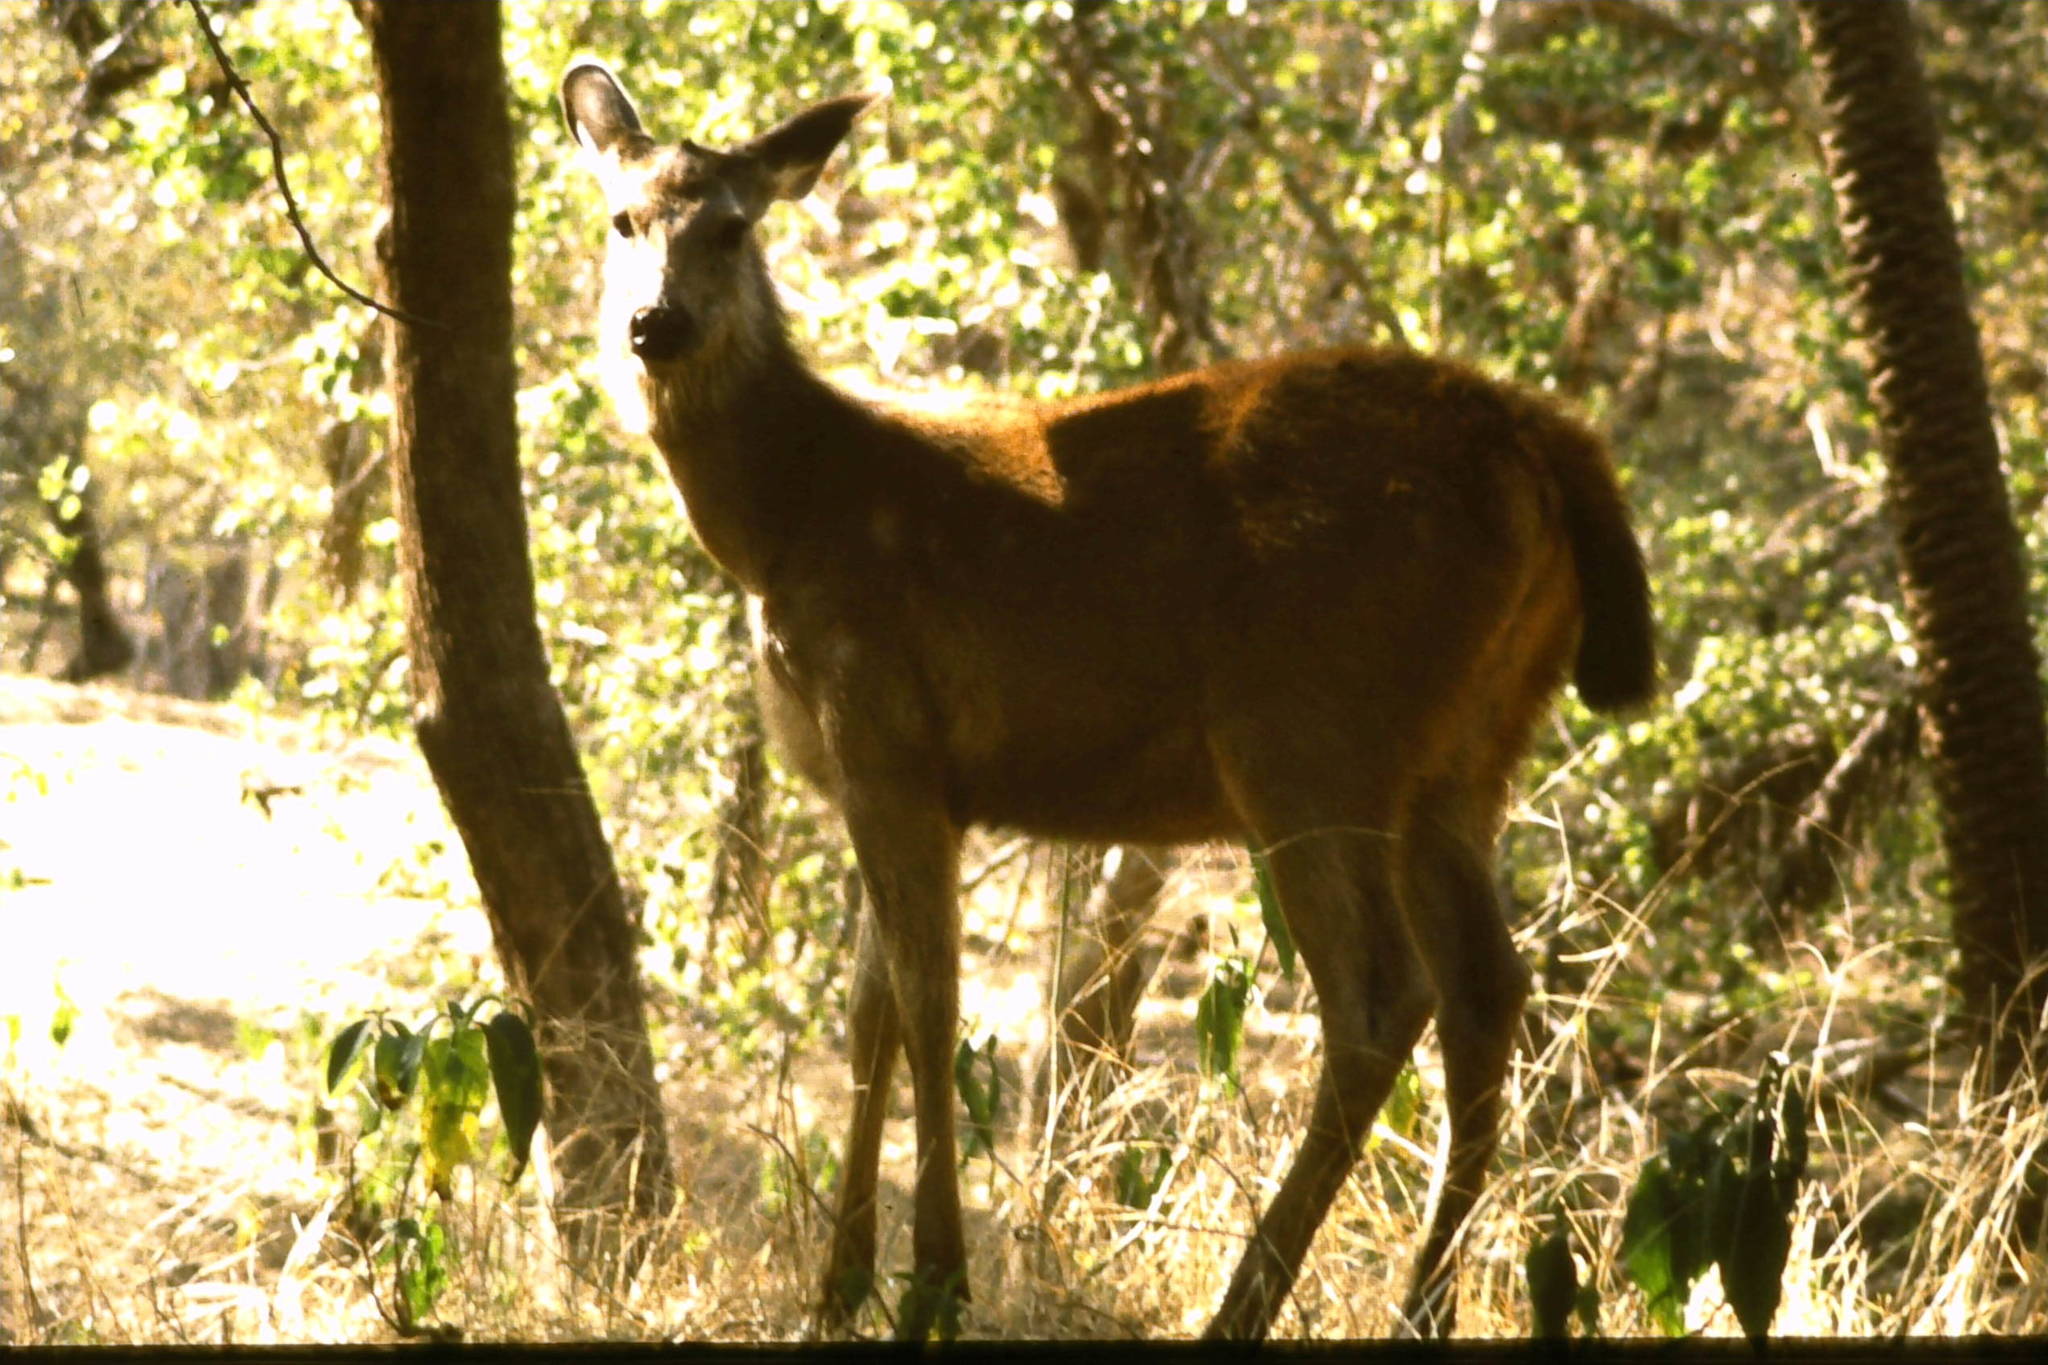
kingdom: Animalia
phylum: Chordata
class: Mammalia
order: Artiodactyla
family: Cervidae
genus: Rusa
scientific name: Rusa unicolor
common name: Sambar
